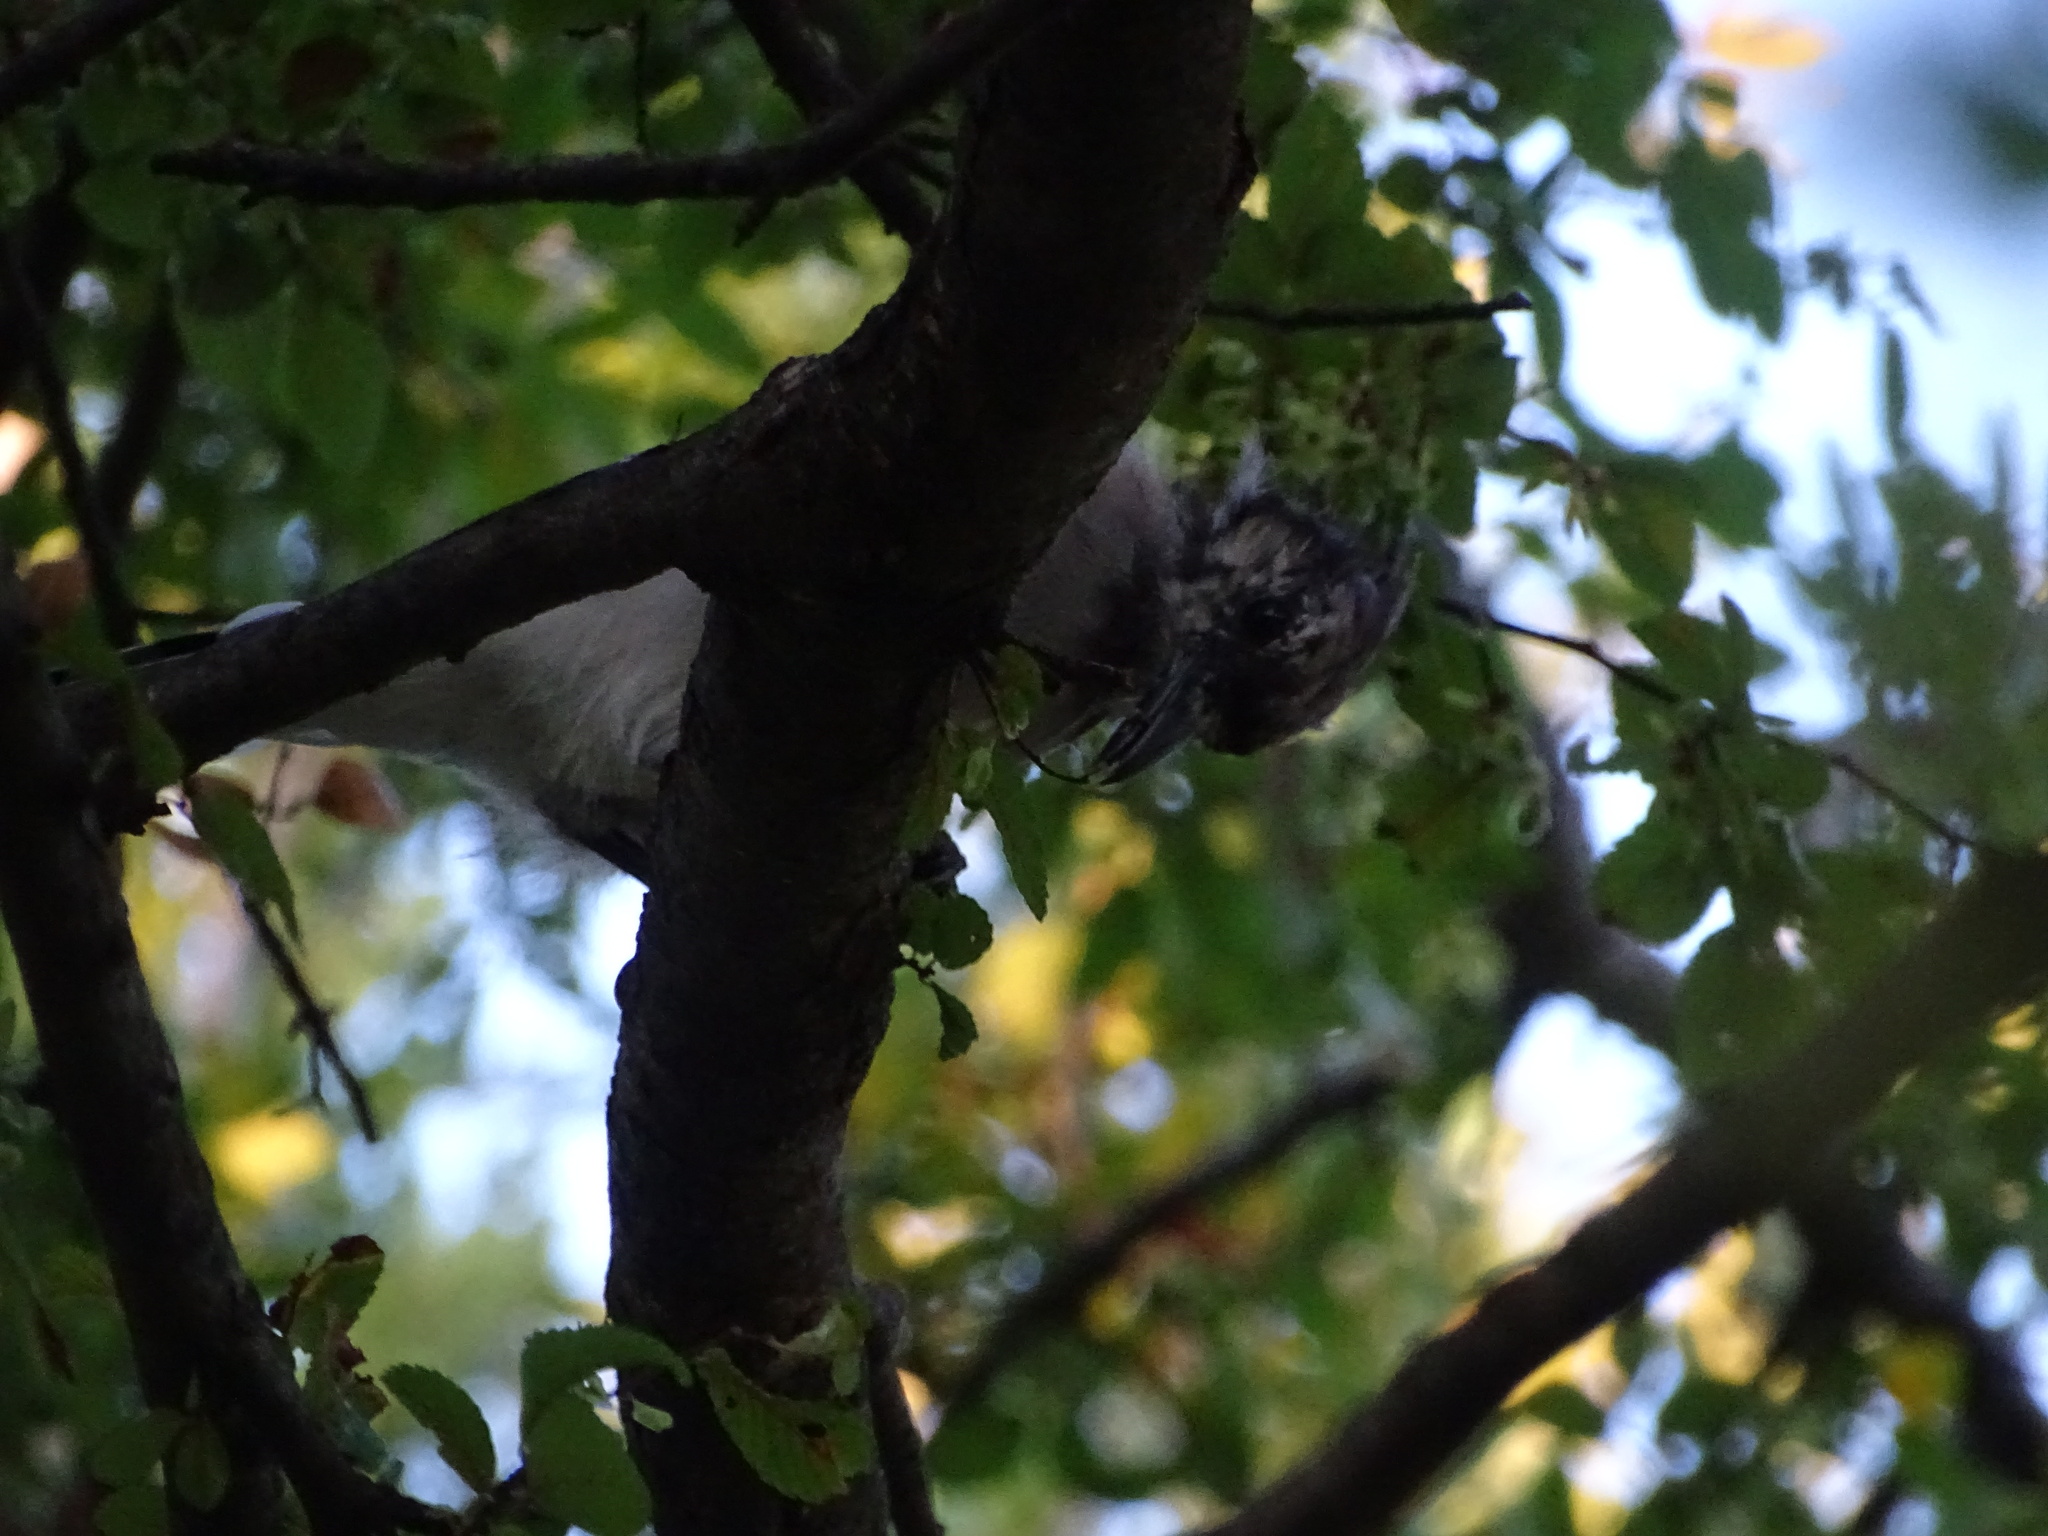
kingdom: Animalia
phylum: Chordata
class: Aves
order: Passeriformes
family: Corvidae
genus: Cyanocitta
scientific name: Cyanocitta cristata
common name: Blue jay
